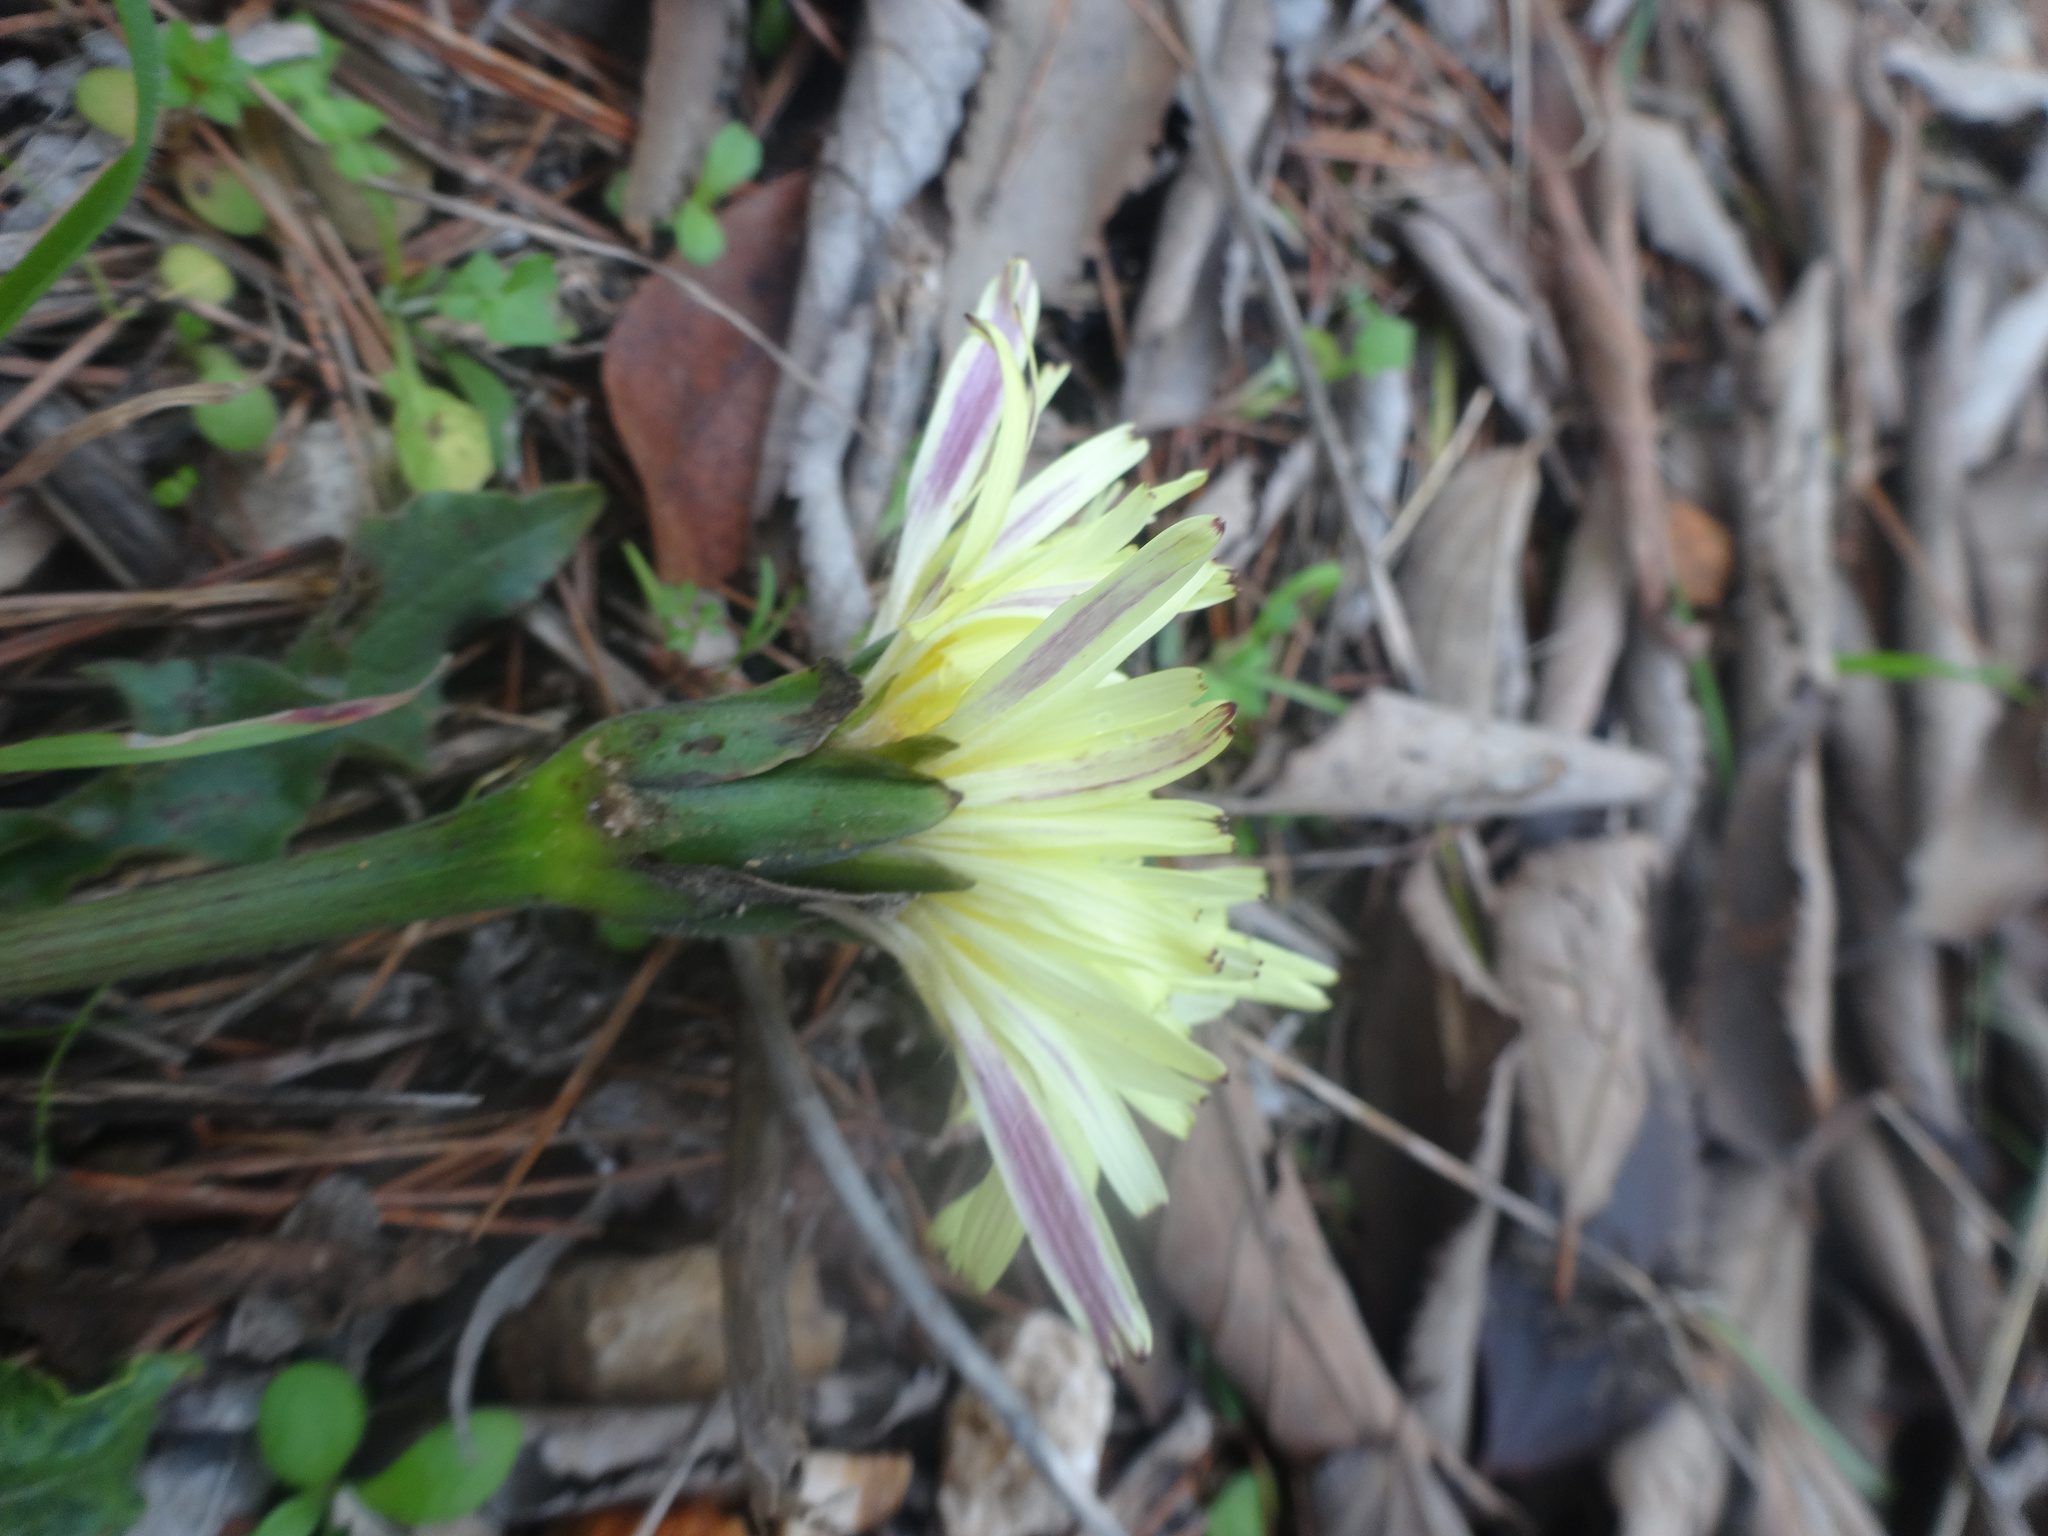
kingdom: Plantae
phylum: Tracheophyta
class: Magnoliopsida
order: Asterales
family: Asteraceae
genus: Urospermum
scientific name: Urospermum dalechampii
